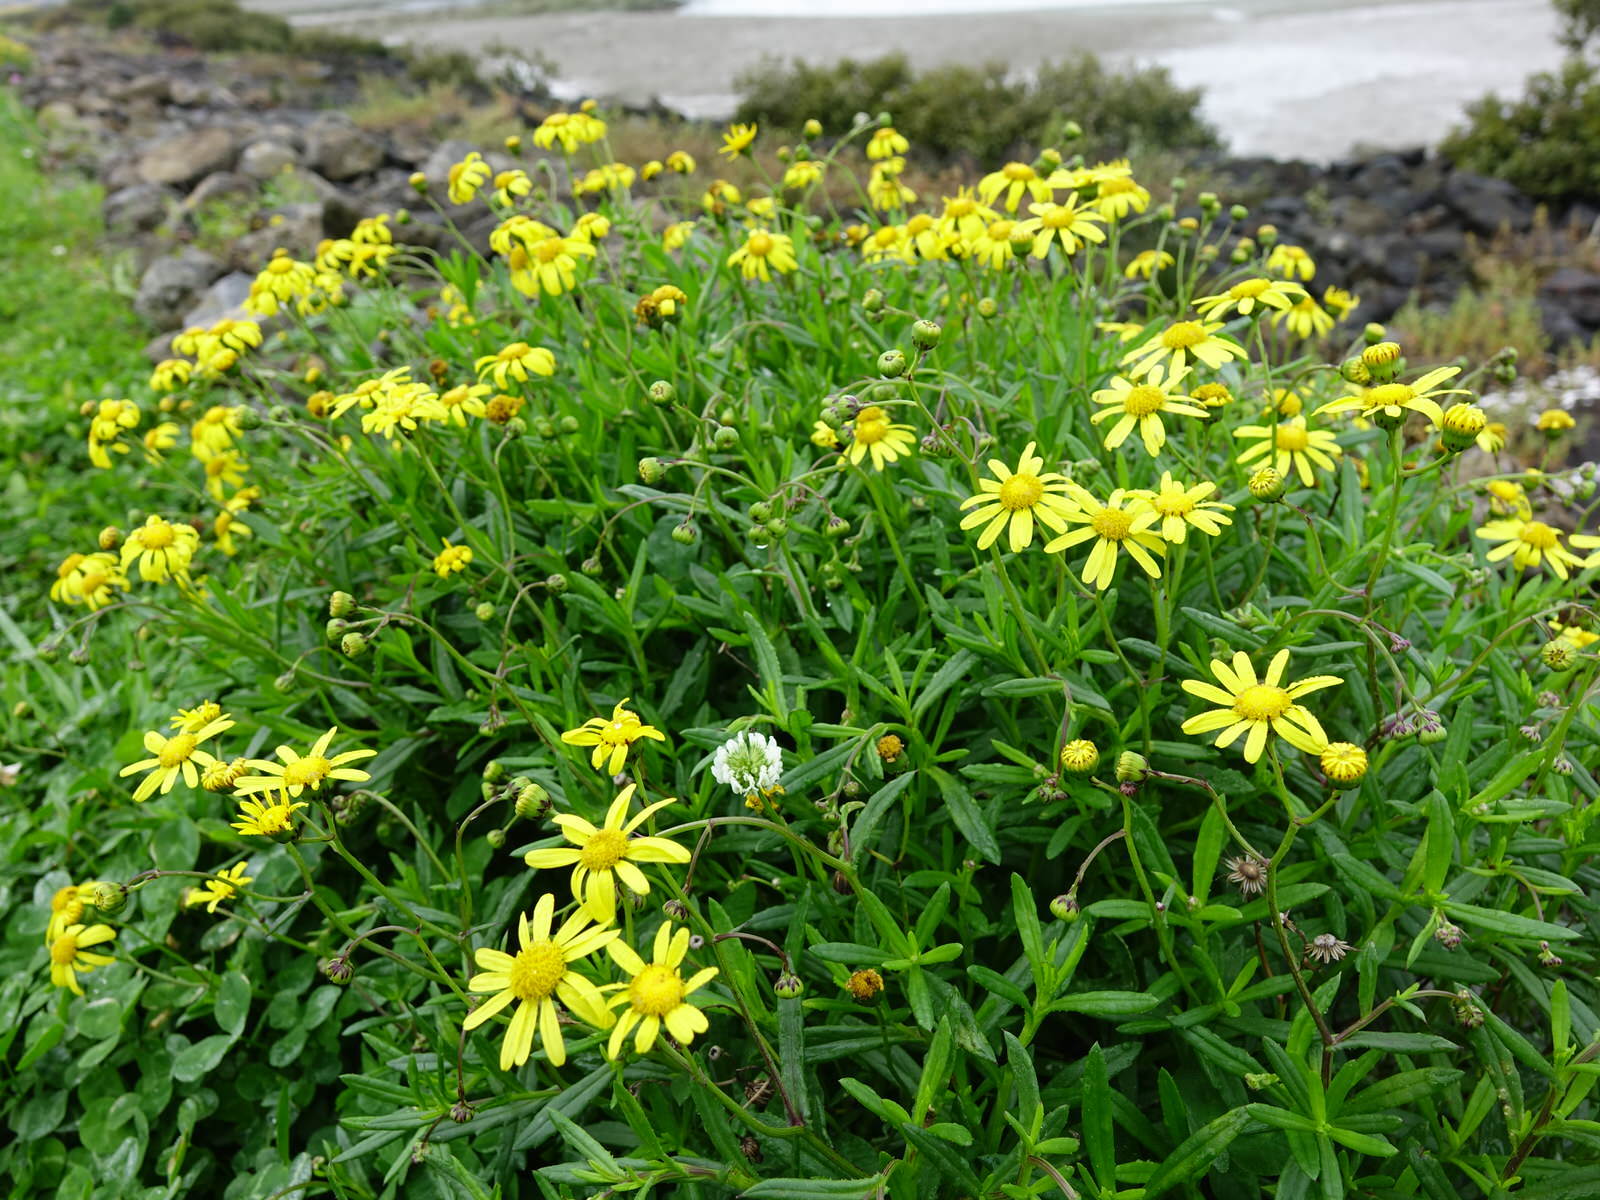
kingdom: Plantae
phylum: Tracheophyta
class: Magnoliopsida
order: Asterales
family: Asteraceae
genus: Senecio
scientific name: Senecio skirrhodon
